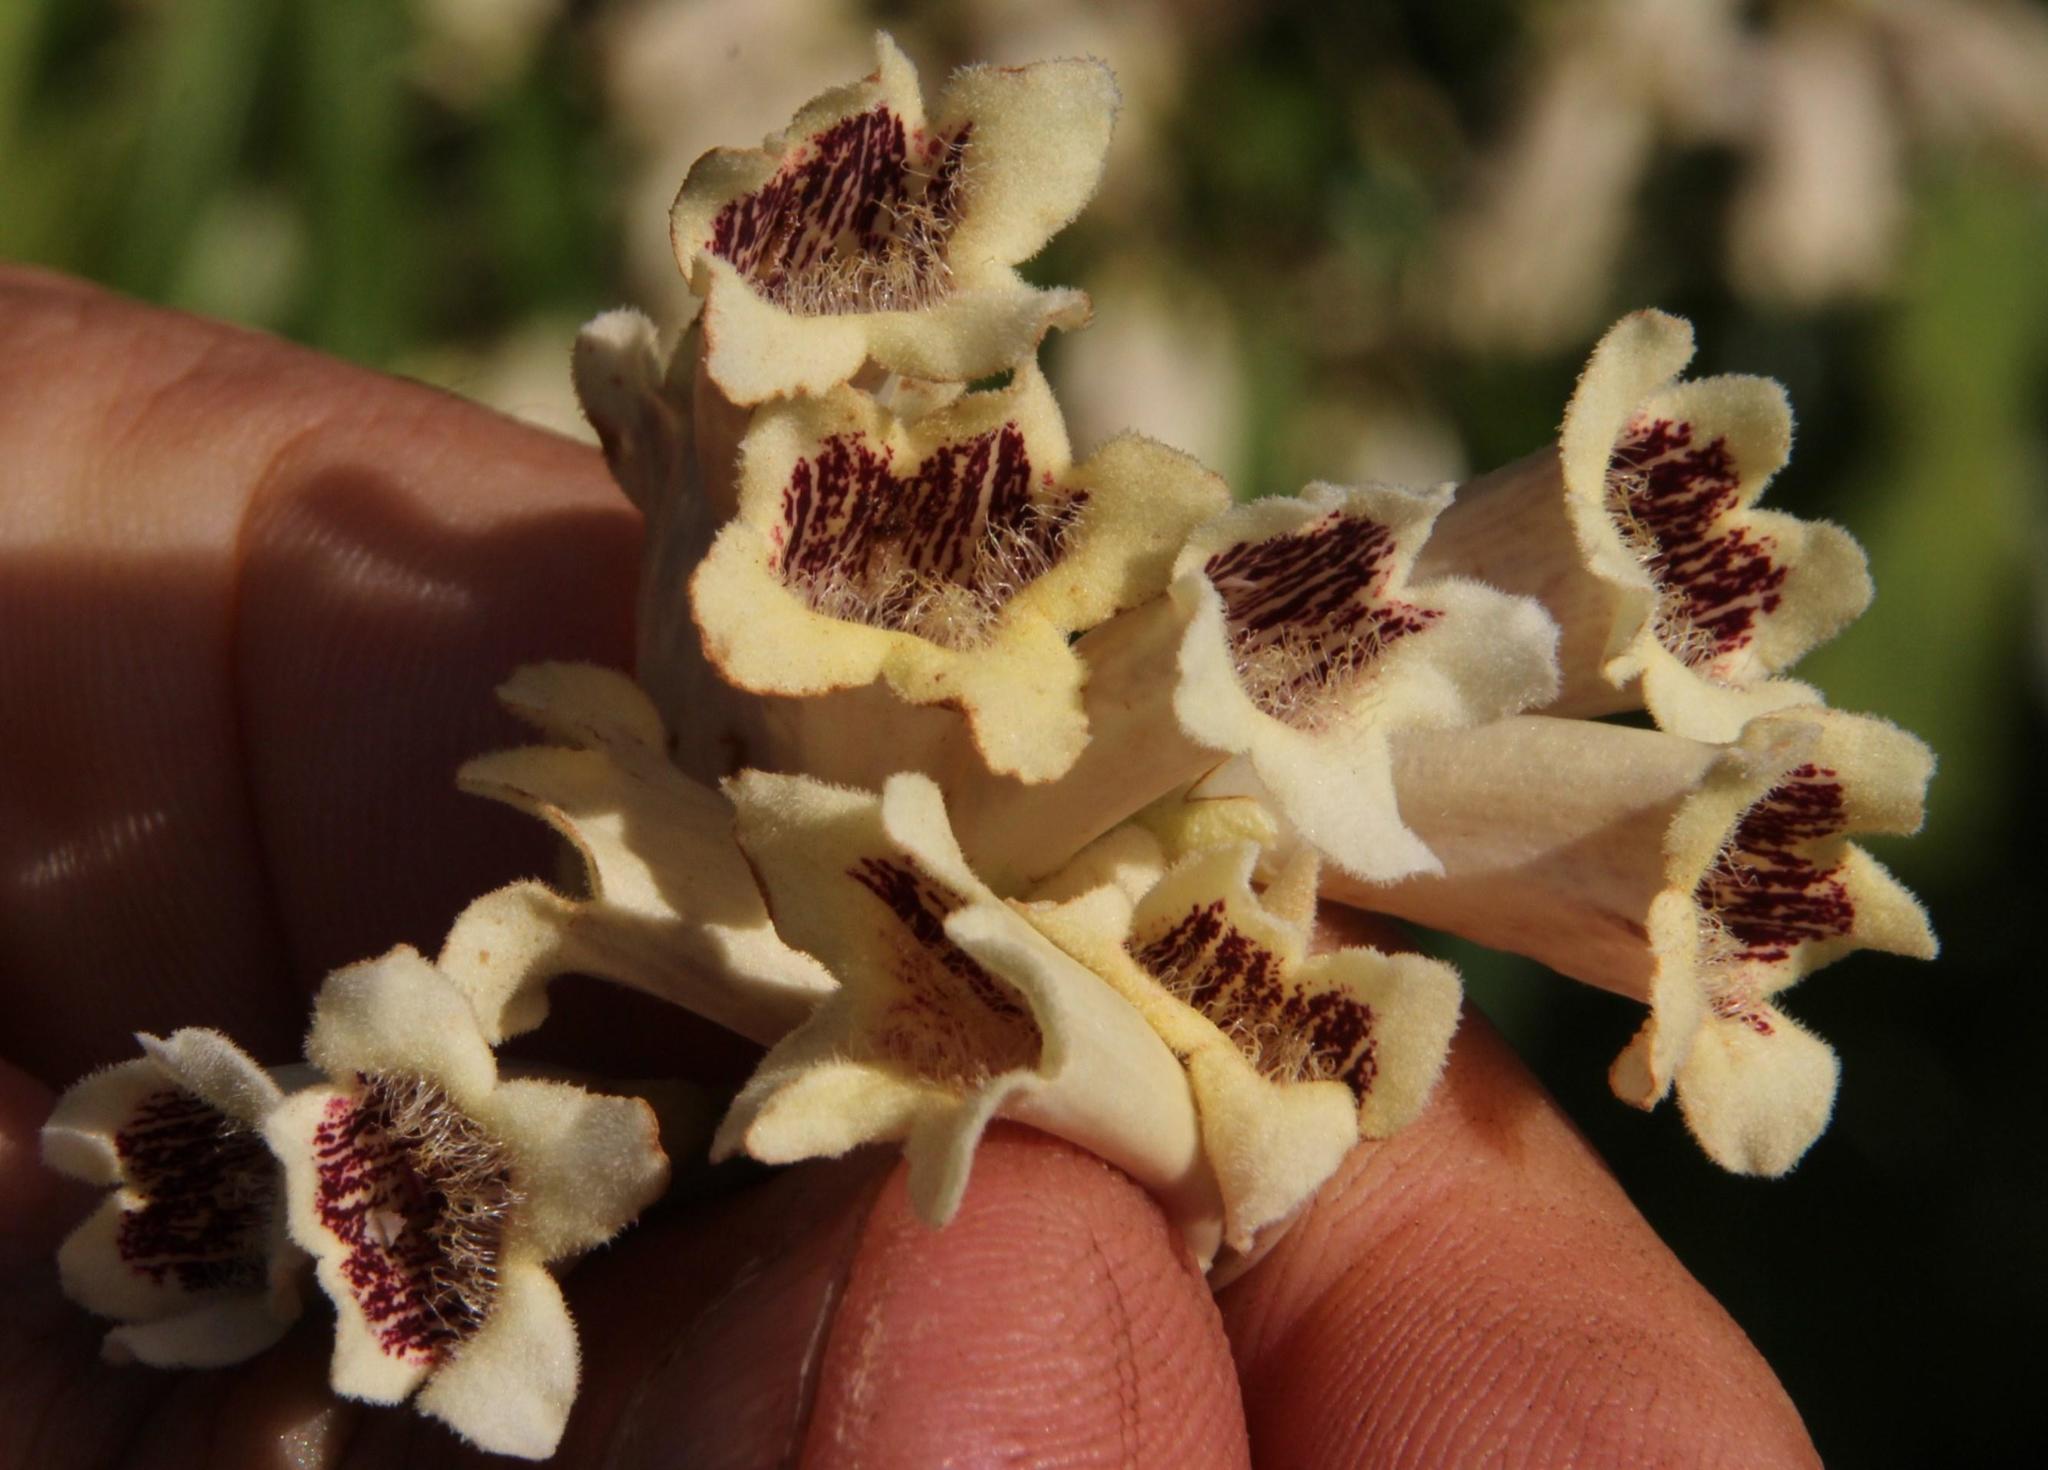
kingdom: Plantae
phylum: Tracheophyta
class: Magnoliopsida
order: Lamiales
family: Bignoniaceae
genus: Pandorea
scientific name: Pandorea pandorana
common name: Wonga-wonga-vine
